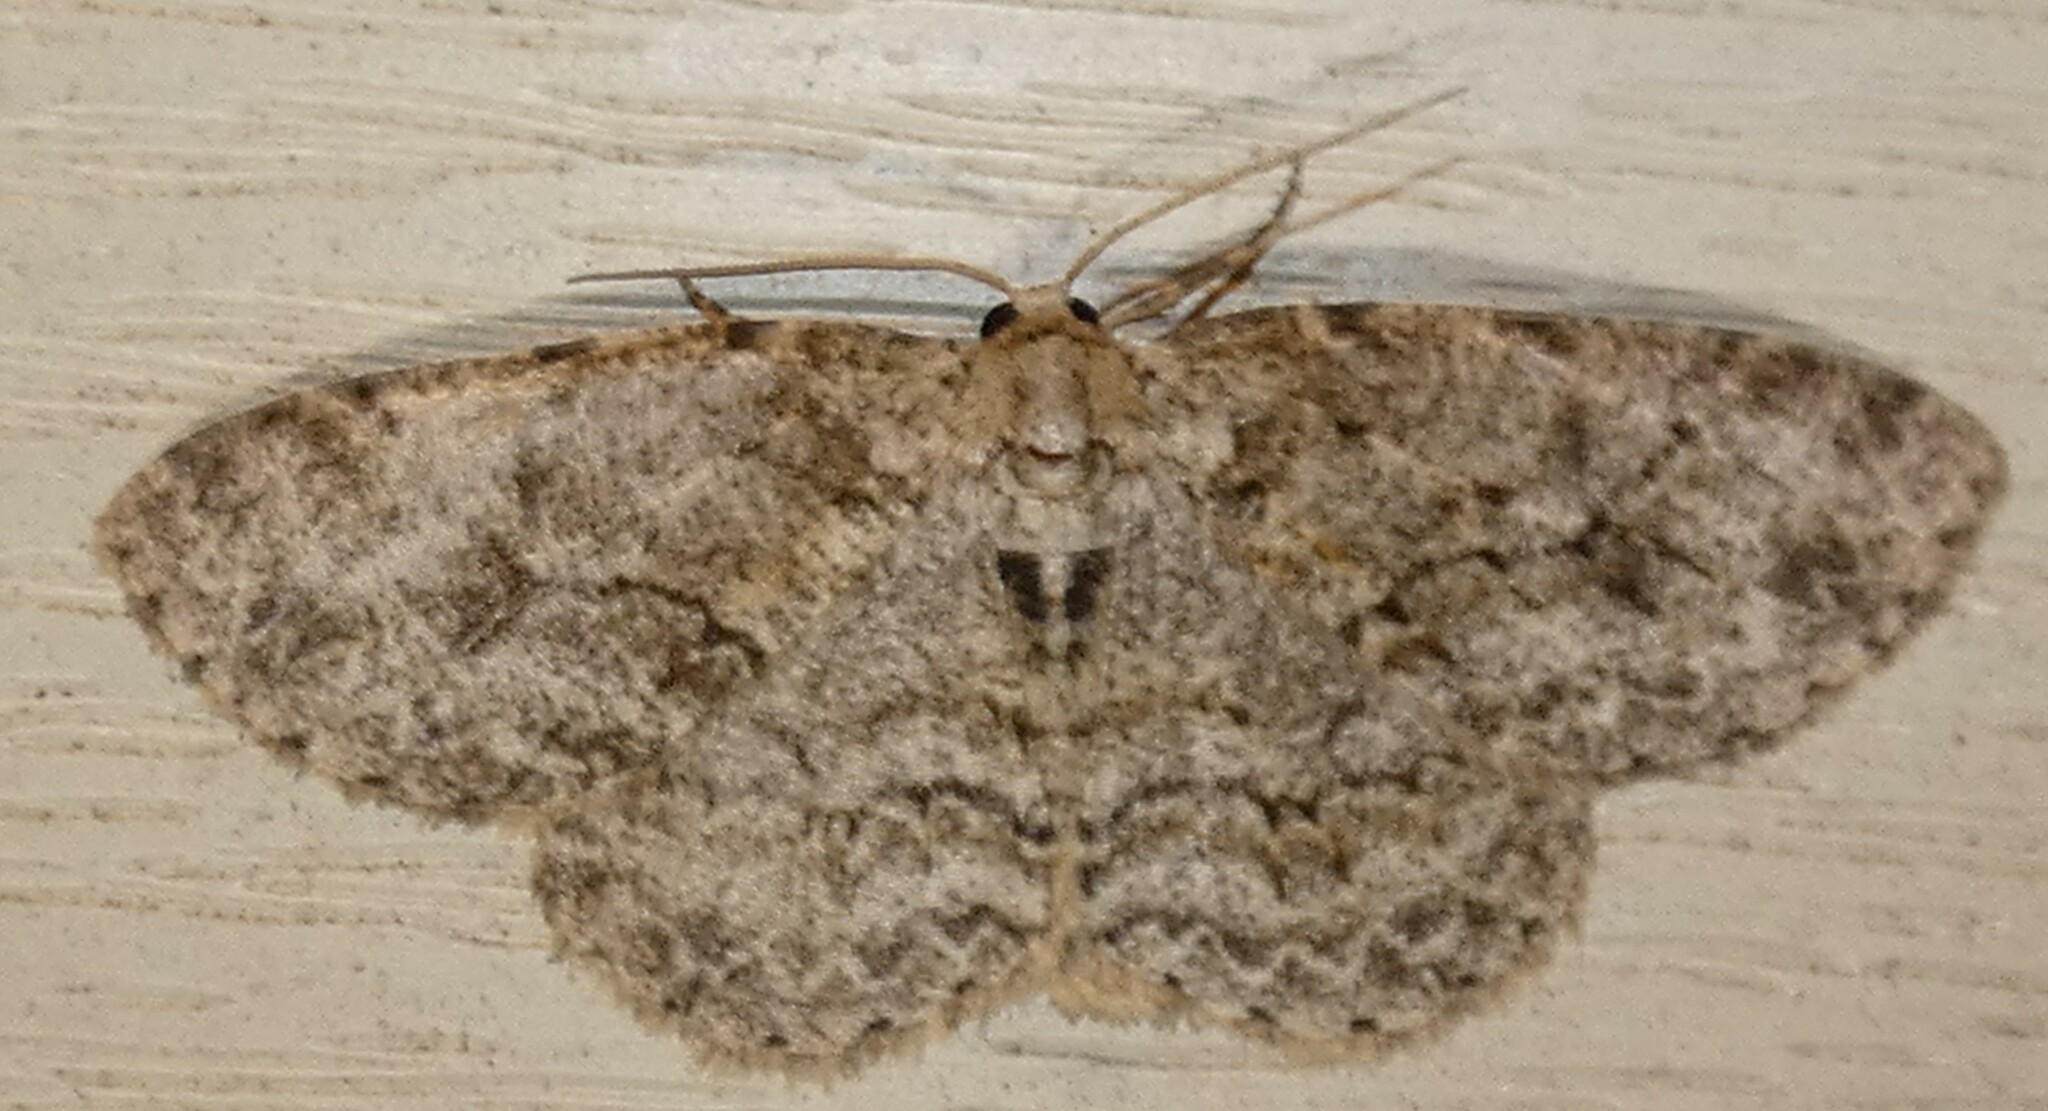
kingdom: Animalia
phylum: Arthropoda
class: Insecta
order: Lepidoptera
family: Geometridae
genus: Ectropis
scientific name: Ectropis crepuscularia
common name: Engrailed
